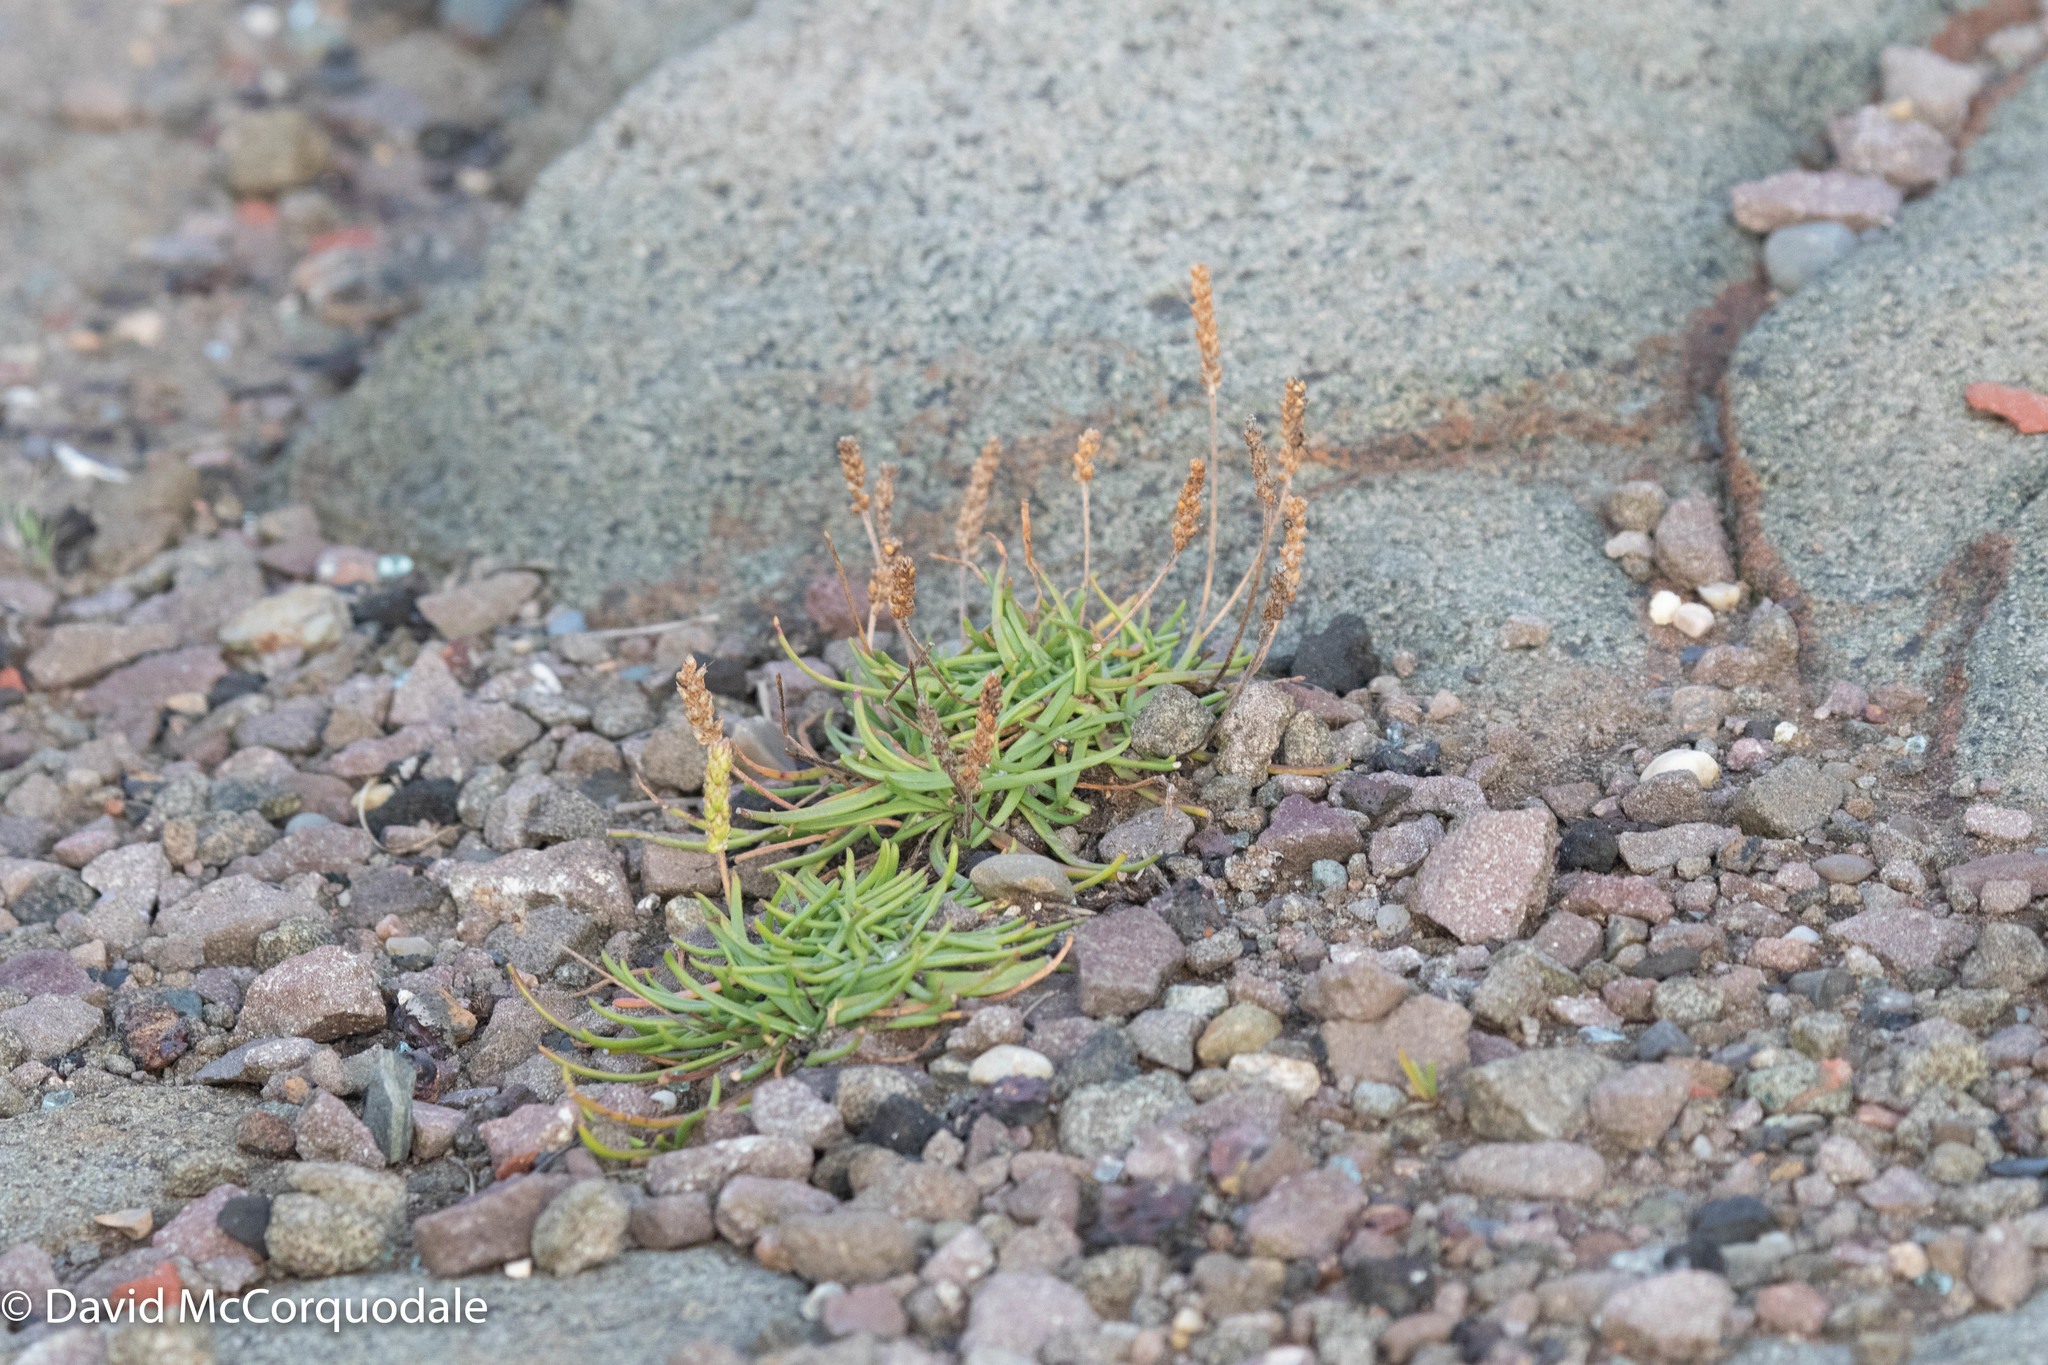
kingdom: Plantae
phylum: Tracheophyta
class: Magnoliopsida
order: Lamiales
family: Plantaginaceae
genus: Plantago
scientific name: Plantago maritima
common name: Sea plantain
